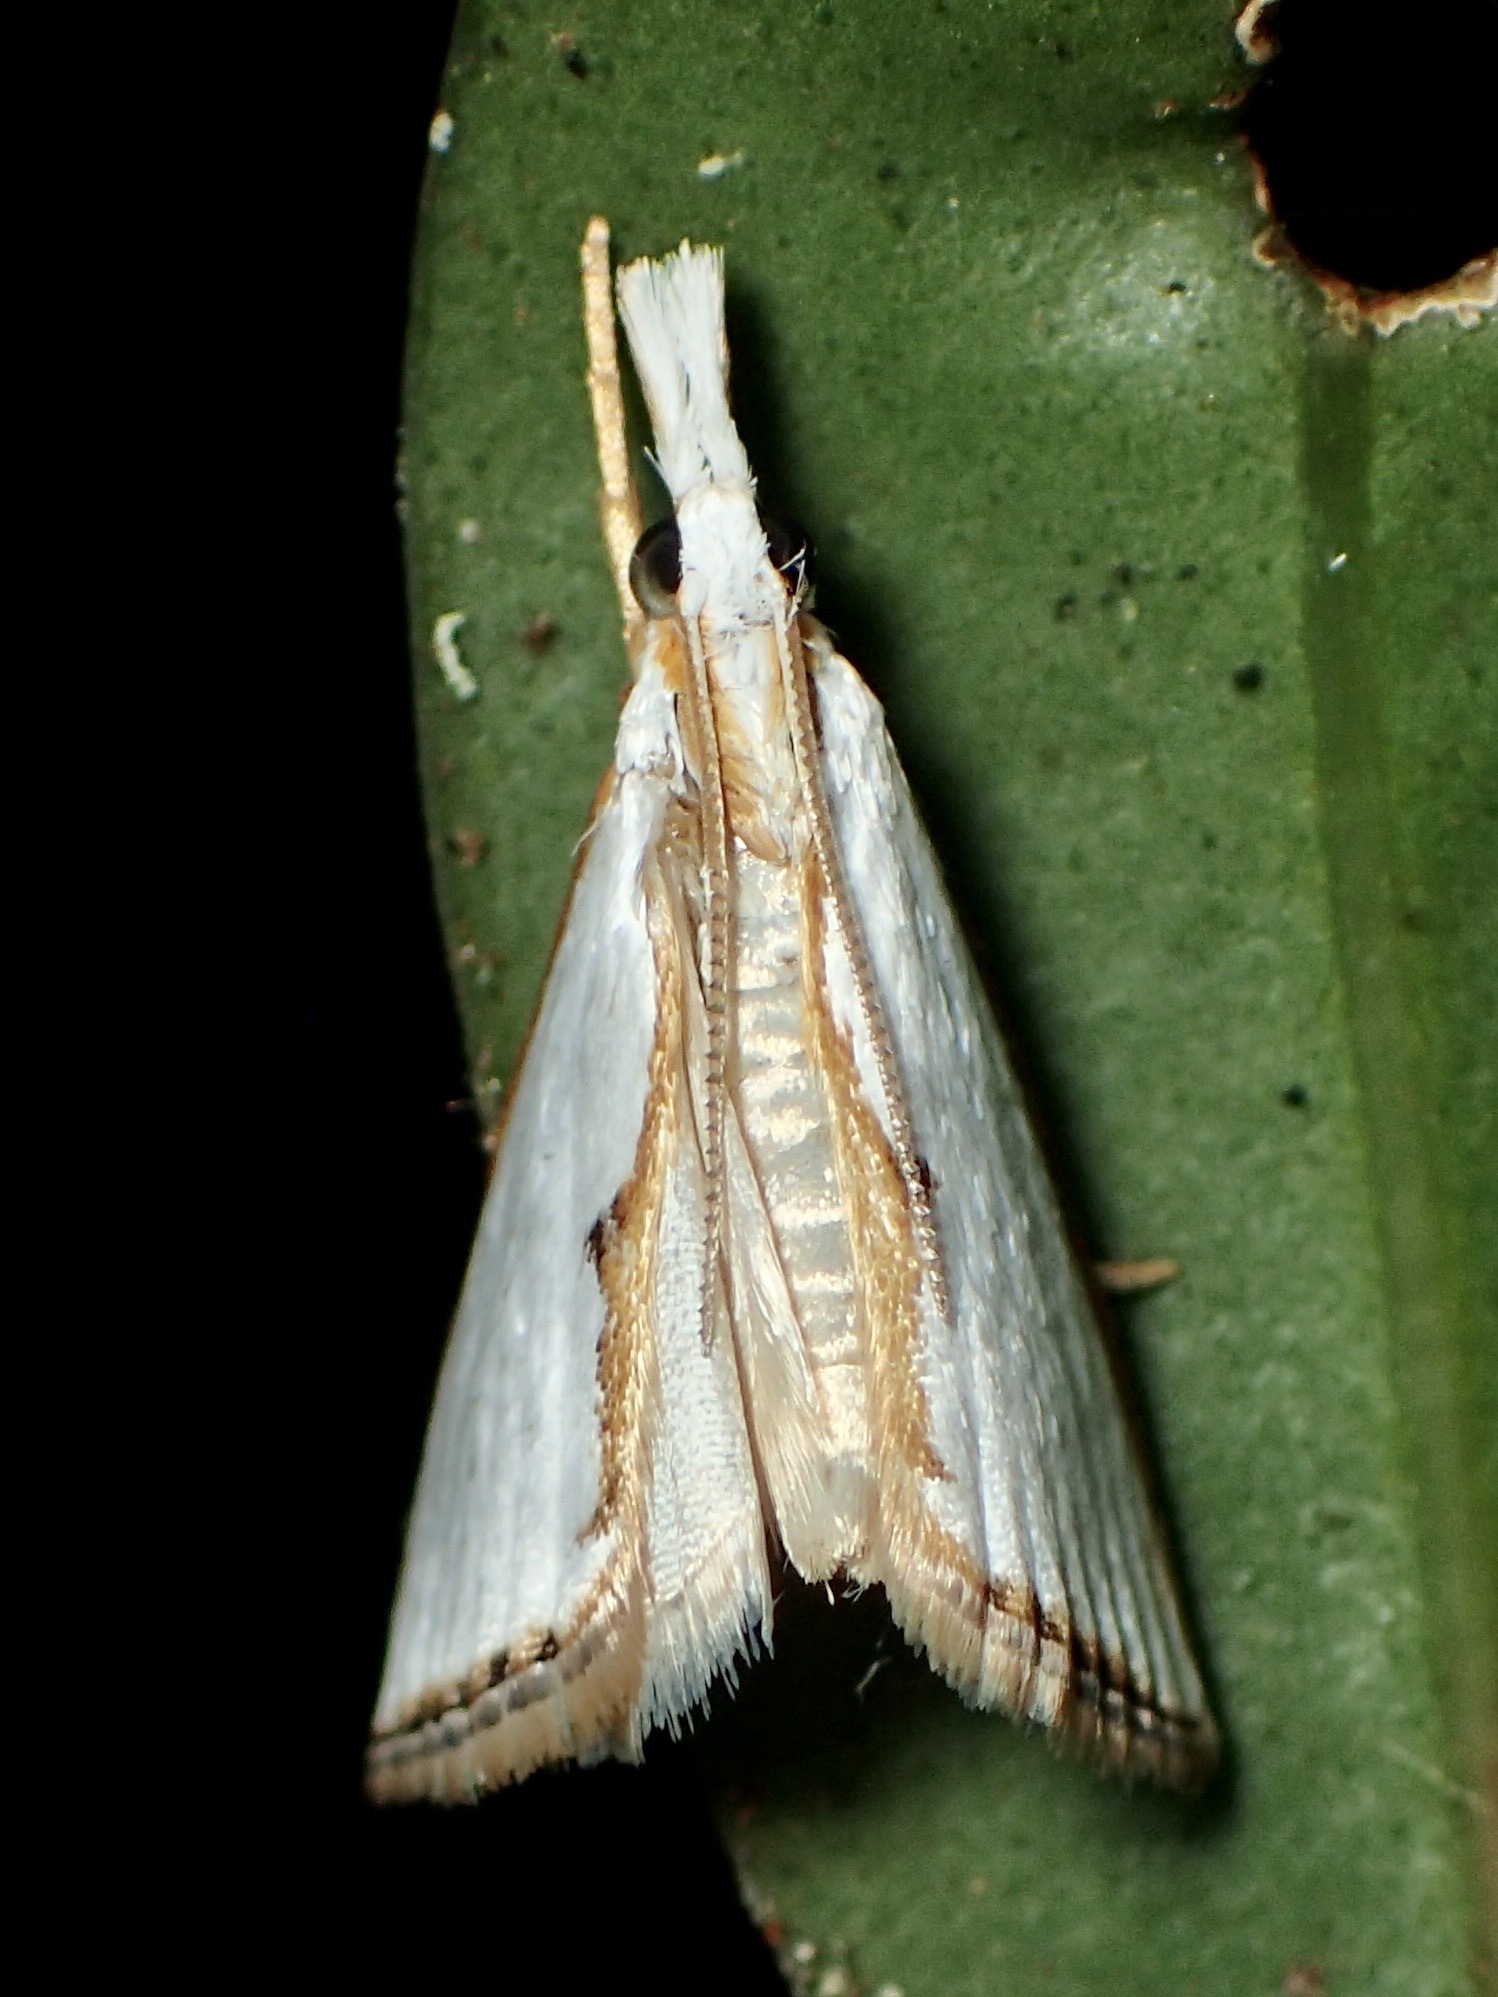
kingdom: Animalia
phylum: Arthropoda
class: Insecta
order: Lepidoptera
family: Crambidae
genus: Neargyria
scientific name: Neargyria argyraspis
